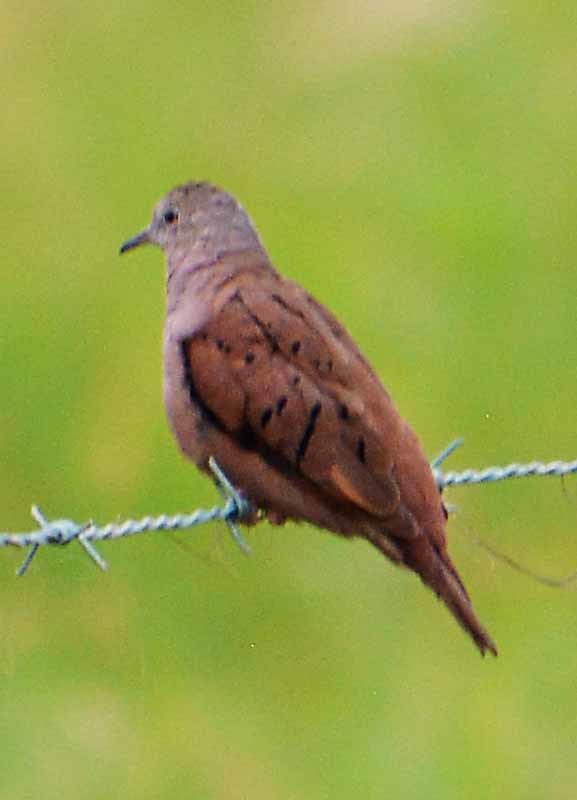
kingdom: Animalia
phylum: Chordata
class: Aves
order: Columbiformes
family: Columbidae
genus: Columbina
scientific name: Columbina talpacoti
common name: Ruddy ground dove
